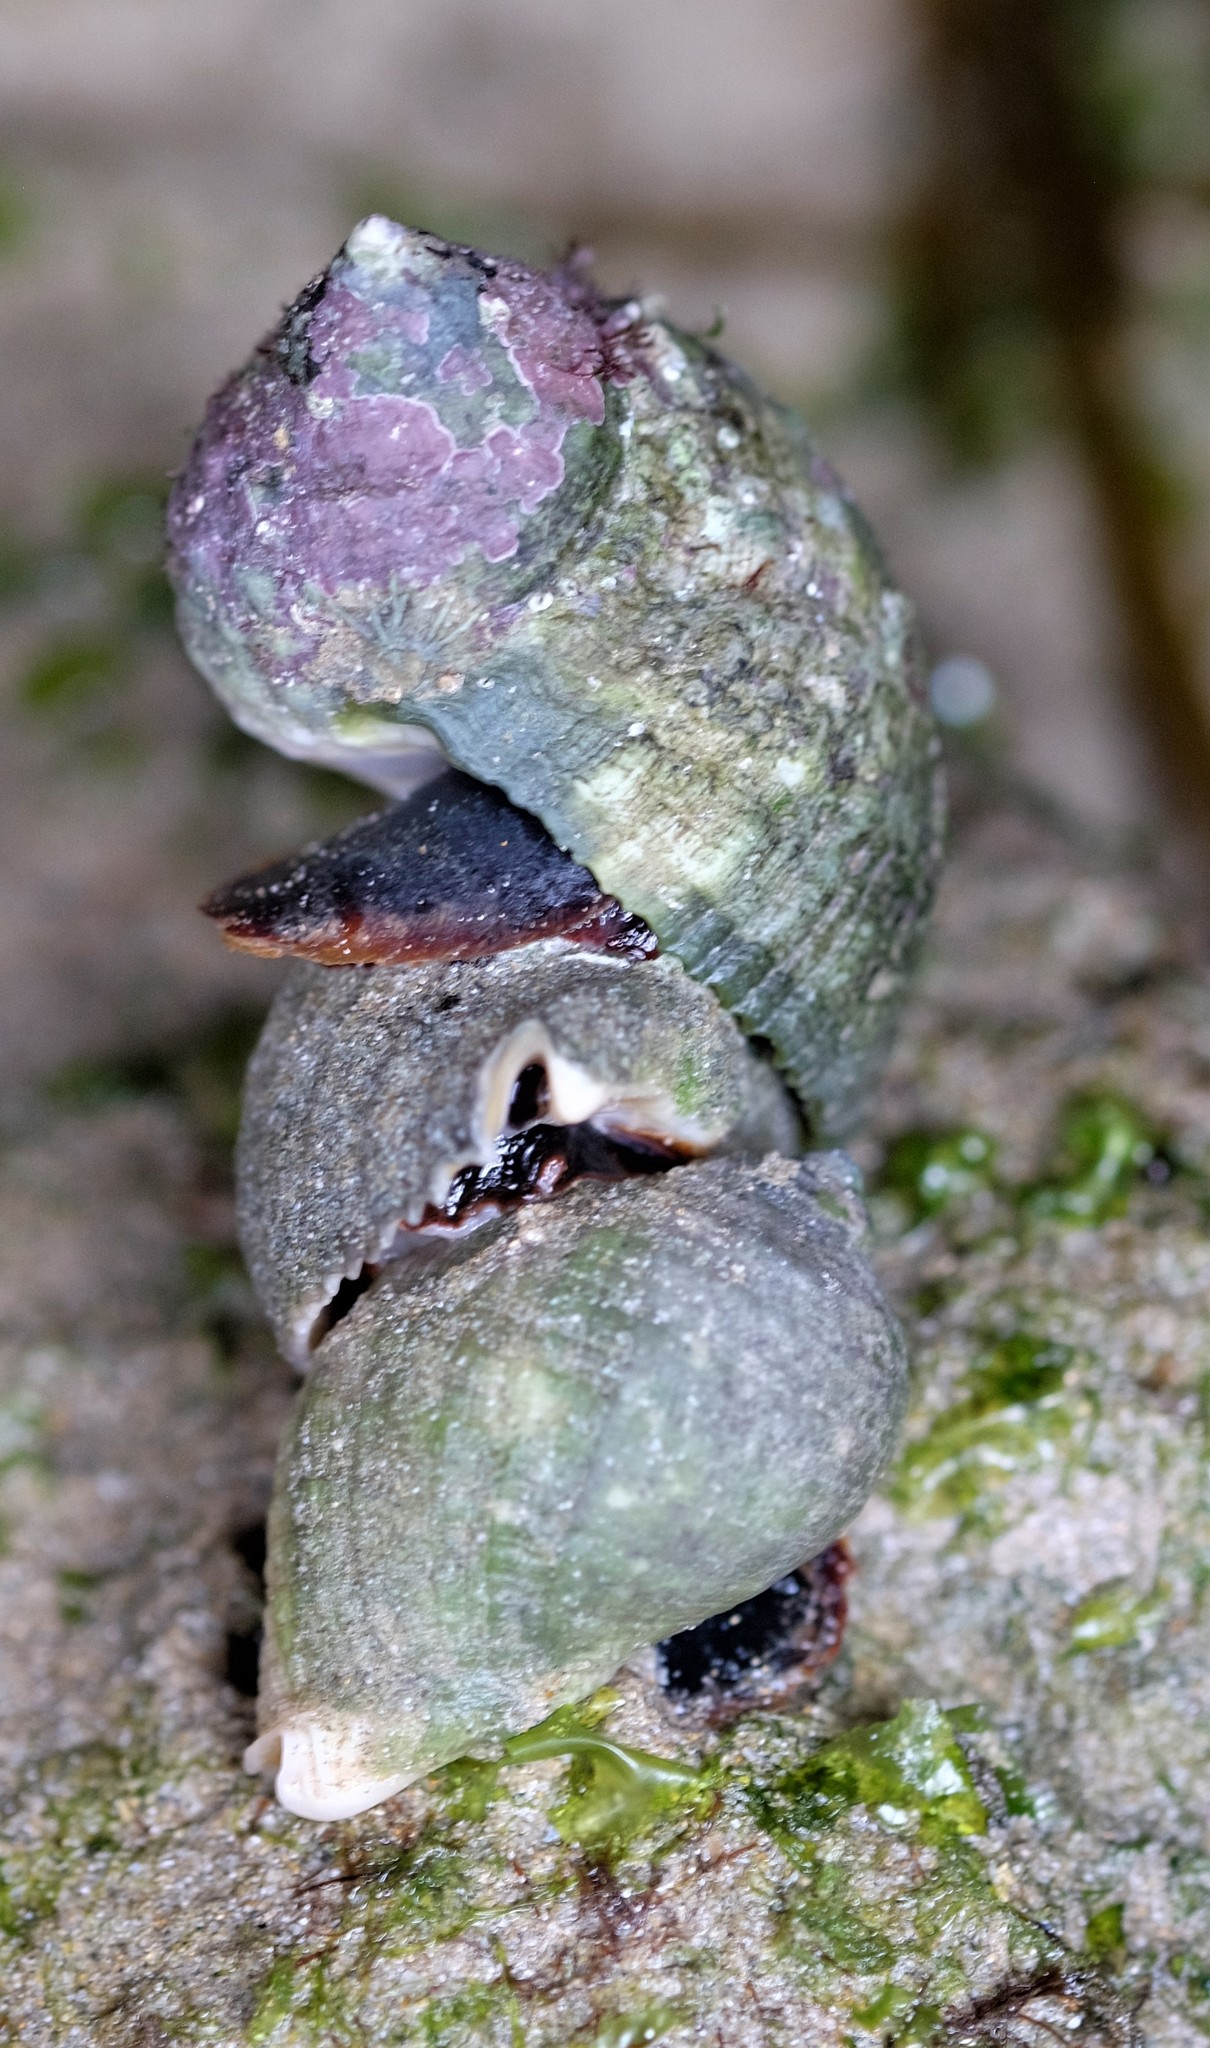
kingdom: Animalia
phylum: Mollusca
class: Gastropoda
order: Neogastropoda
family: Muricidae
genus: Dicathais
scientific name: Dicathais orbita
